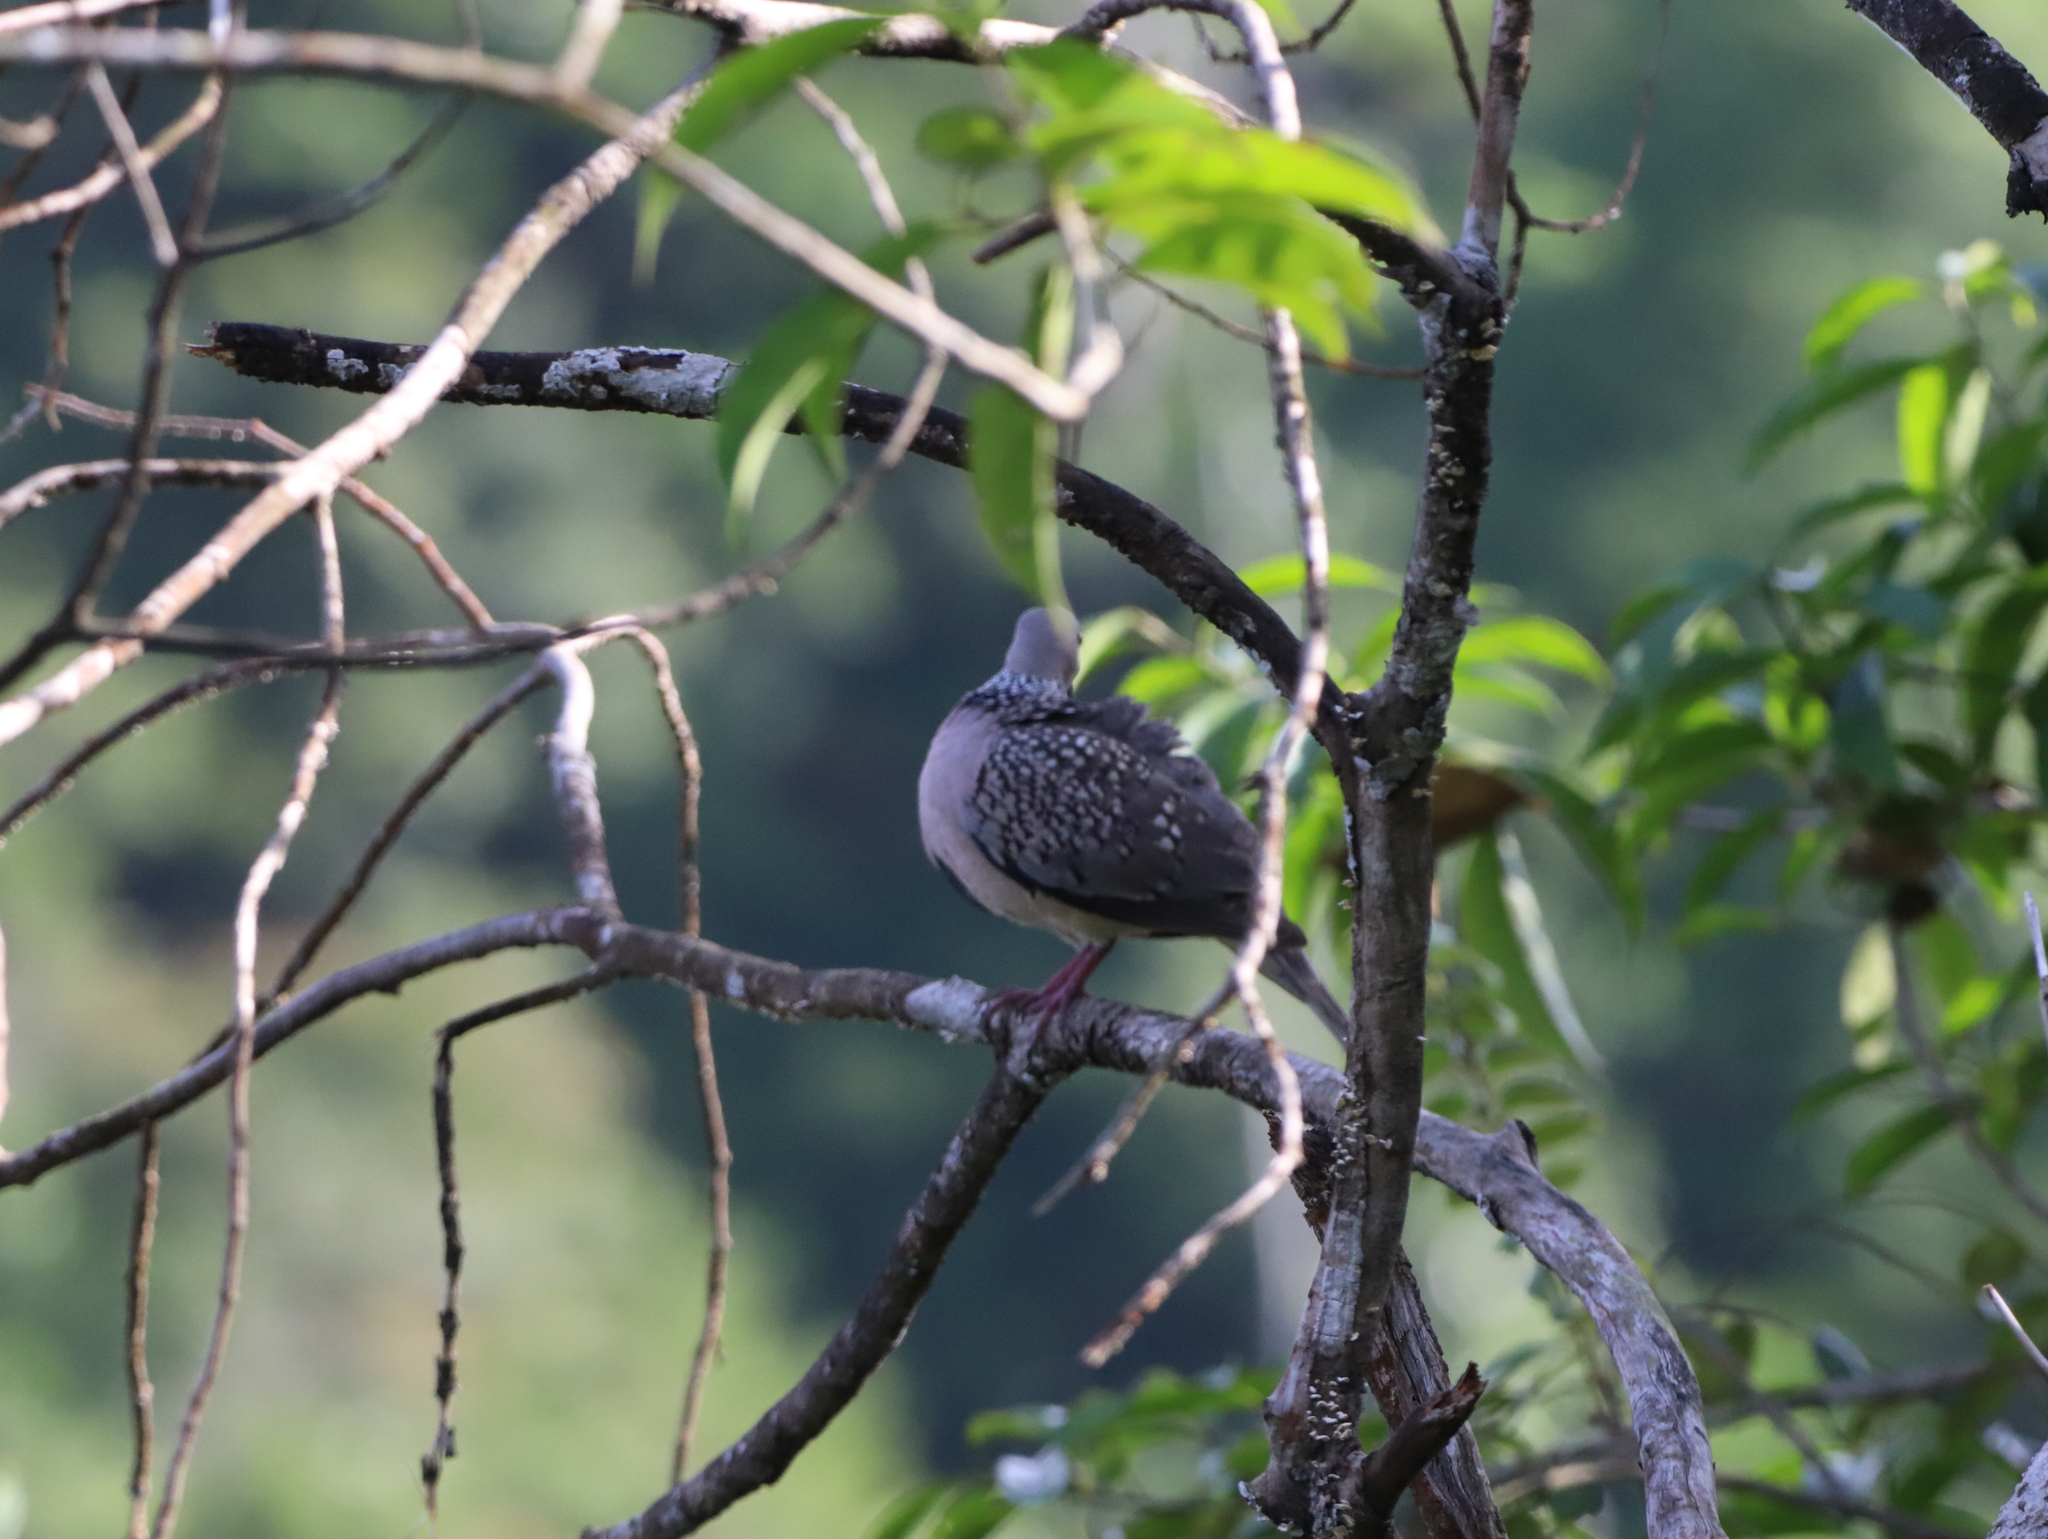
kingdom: Animalia
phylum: Chordata
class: Aves
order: Columbiformes
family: Columbidae
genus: Spilopelia
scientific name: Spilopelia chinensis
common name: Spotted dove
